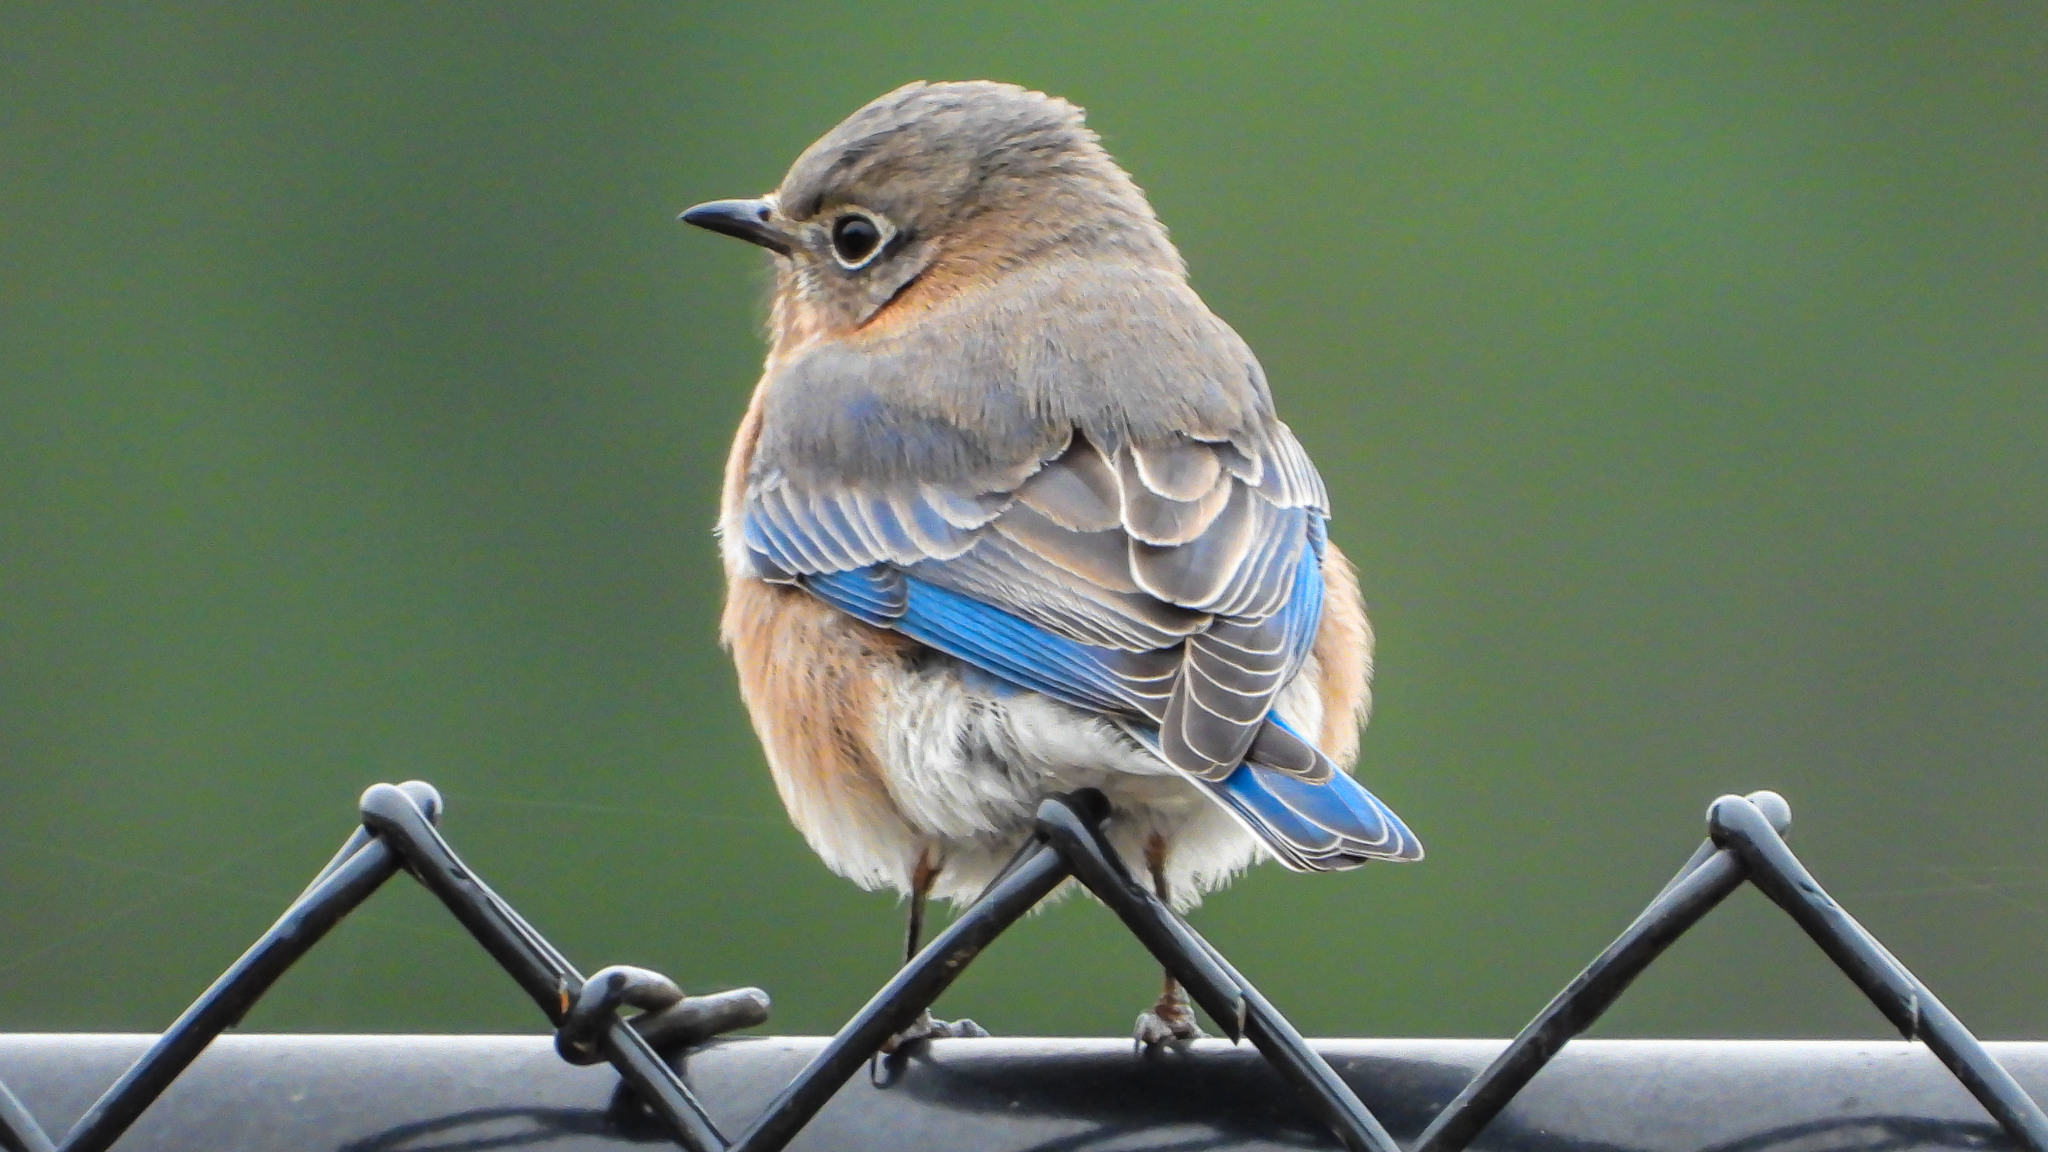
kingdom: Animalia
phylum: Chordata
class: Aves
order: Passeriformes
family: Turdidae
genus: Sialia
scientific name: Sialia sialis
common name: Eastern bluebird
